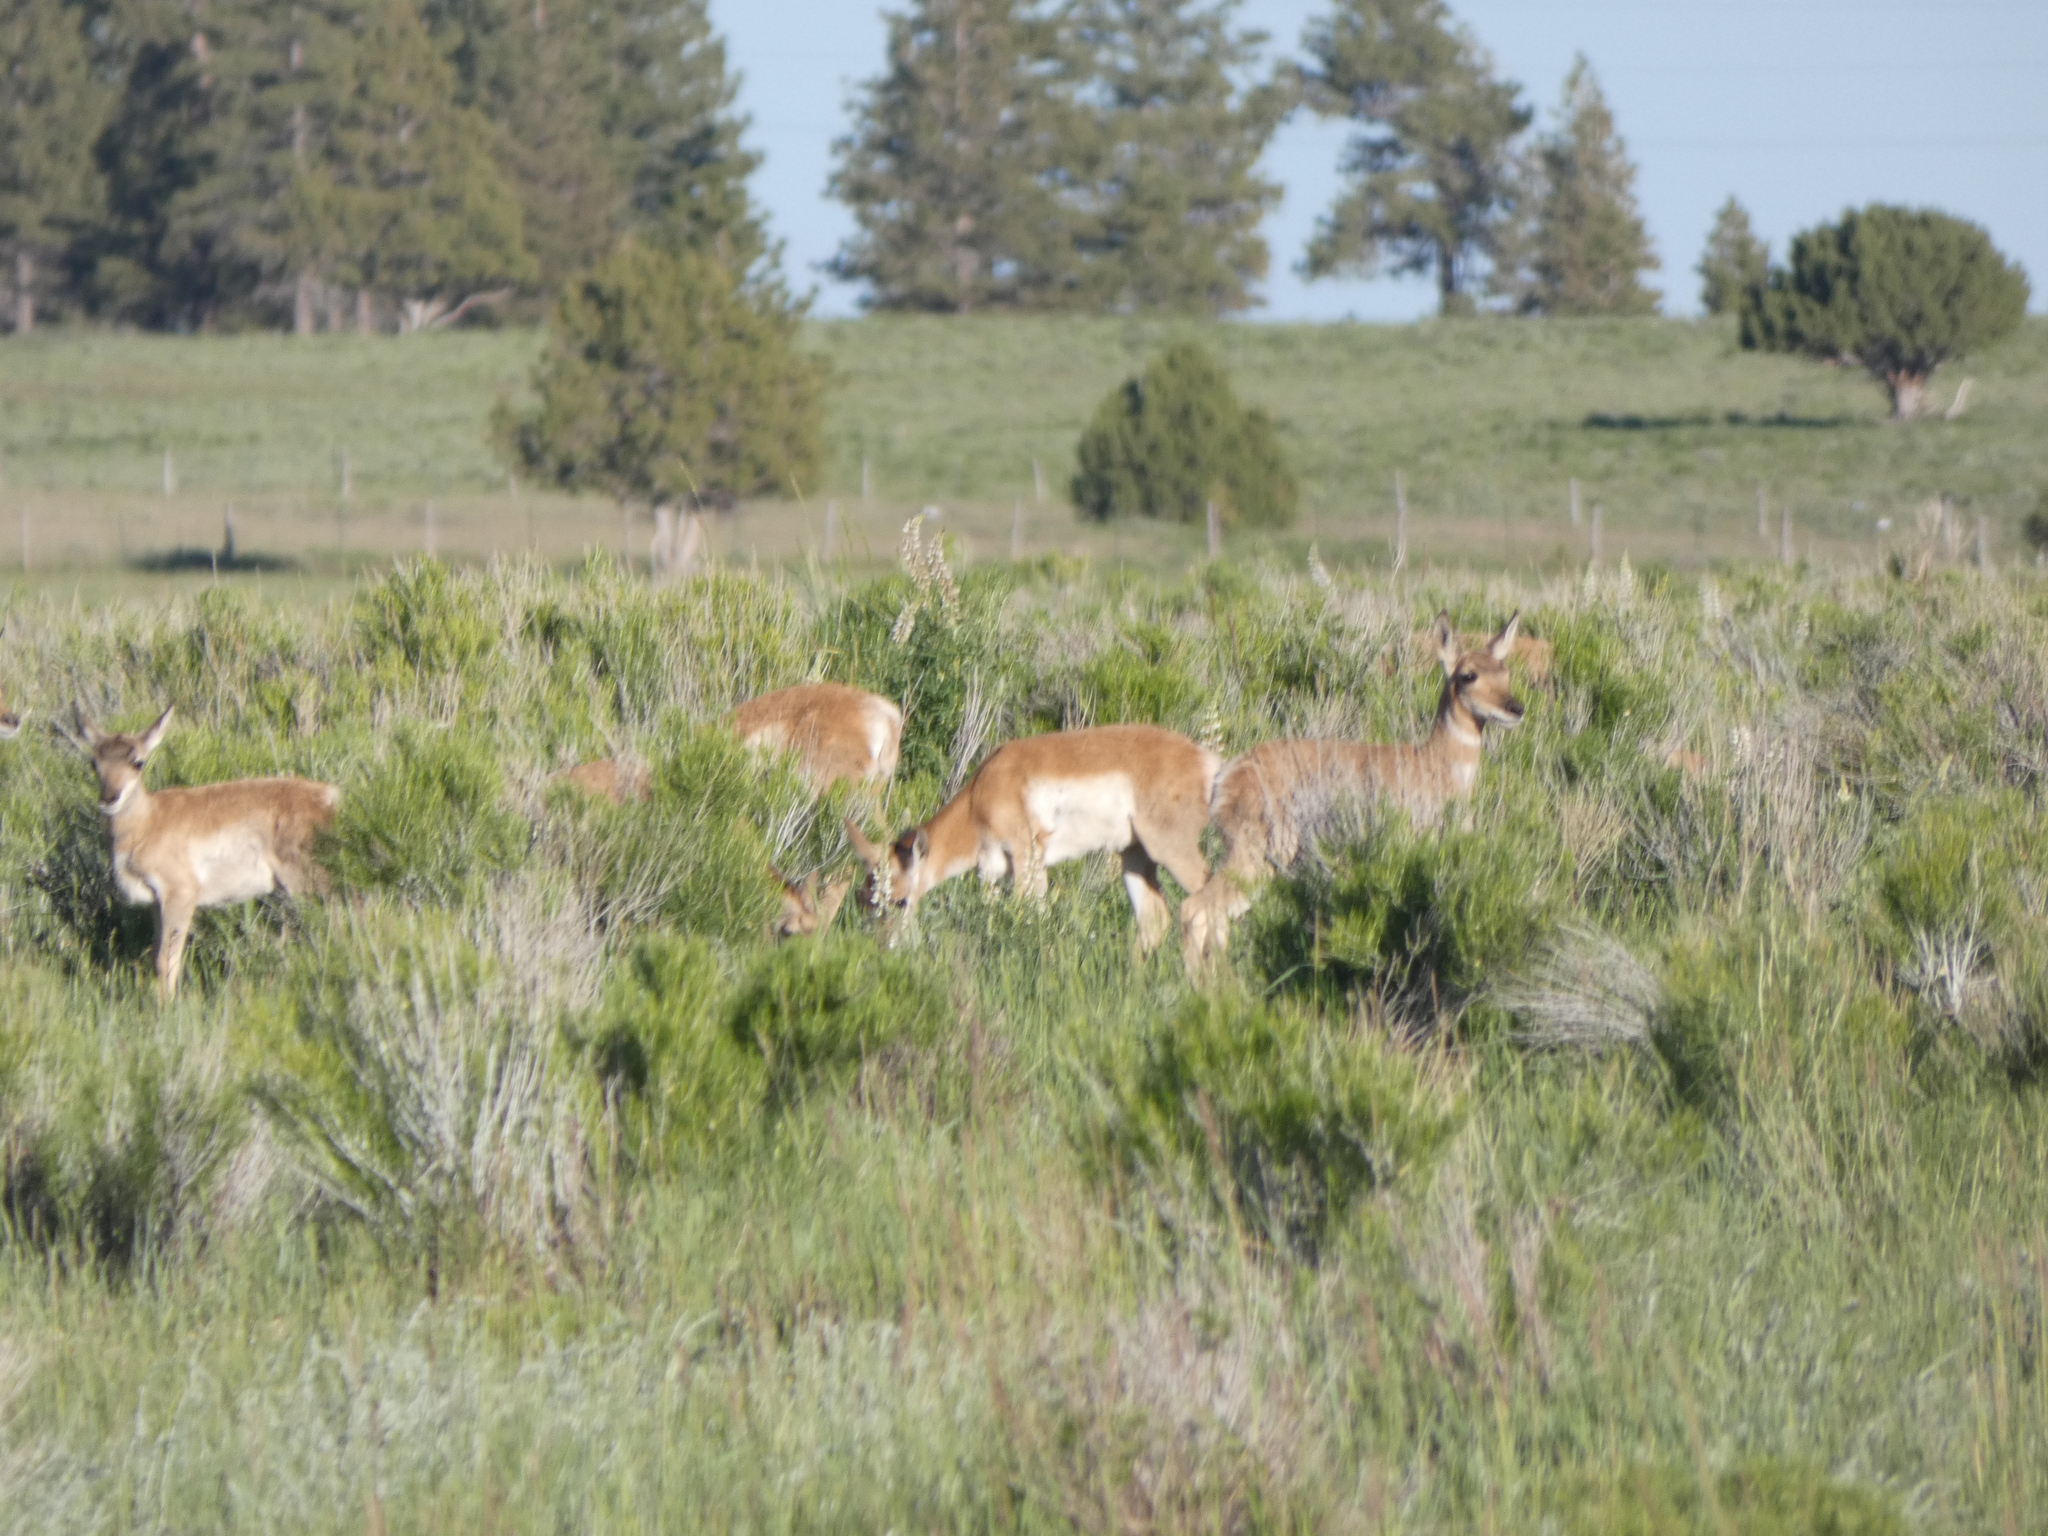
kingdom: Animalia
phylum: Chordata
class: Mammalia
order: Artiodactyla
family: Antilocapridae
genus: Antilocapra
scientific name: Antilocapra americana
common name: Pronghorn
